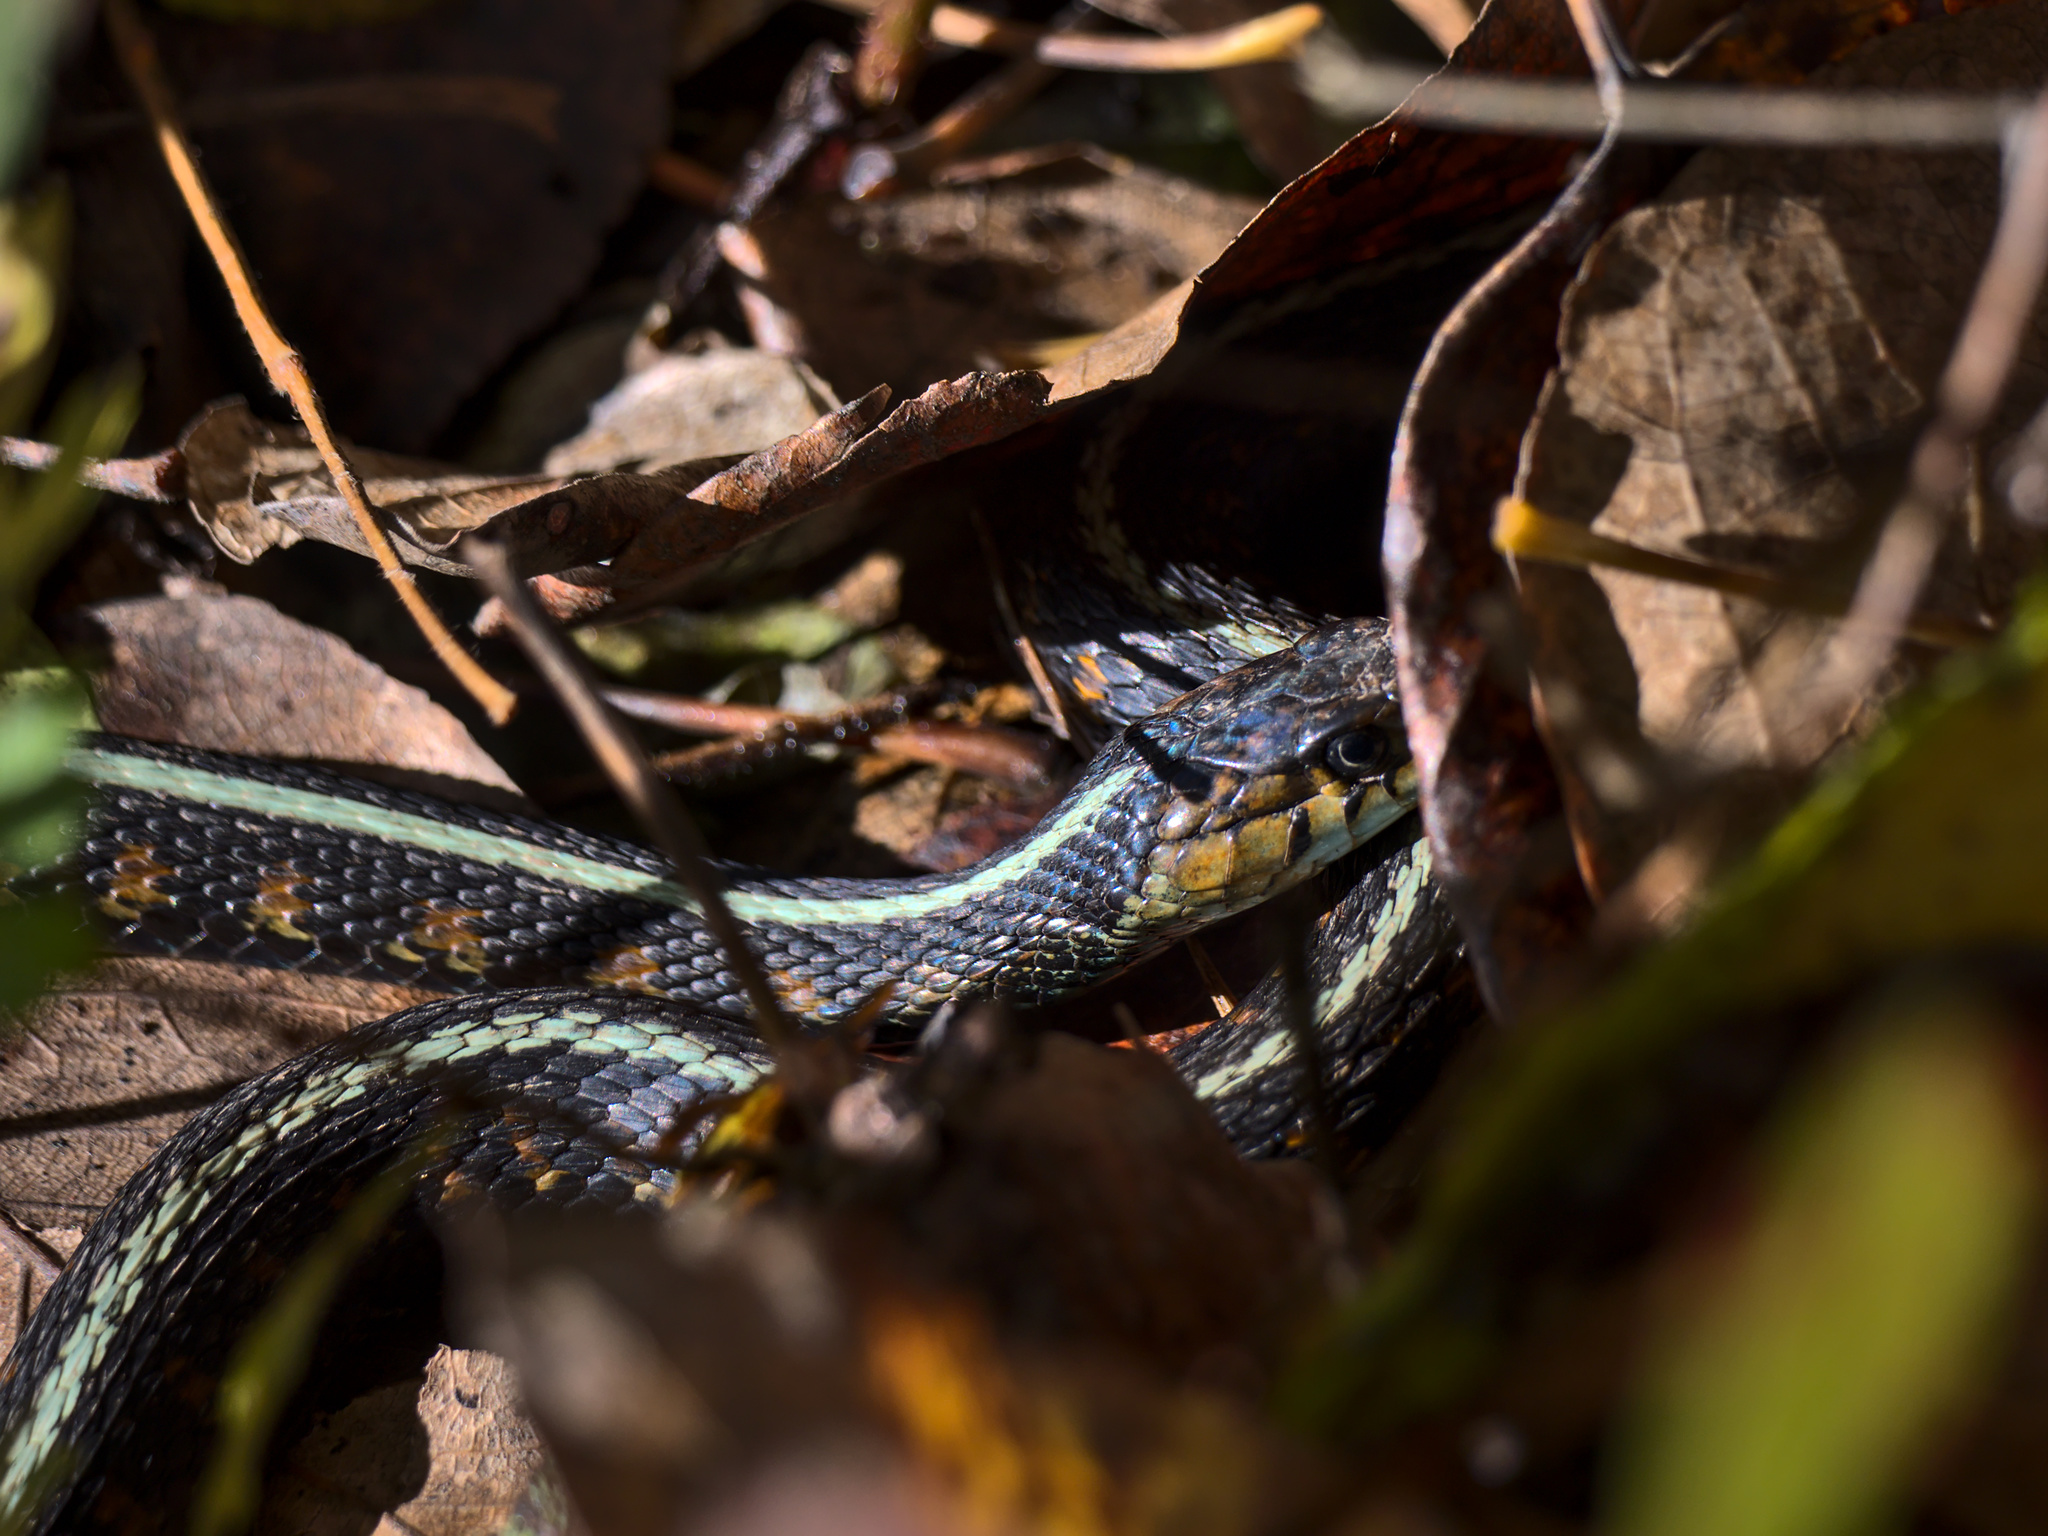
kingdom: Animalia
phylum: Chordata
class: Squamata
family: Colubridae
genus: Thamnophis
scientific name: Thamnophis sirtalis
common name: Common garter snake
